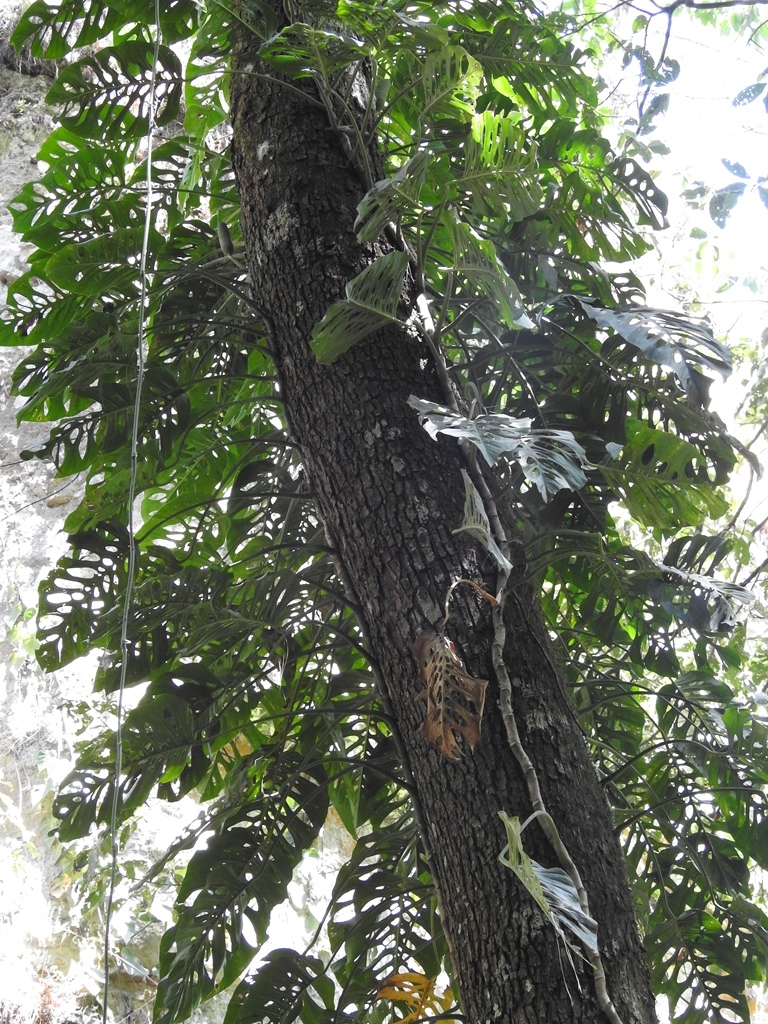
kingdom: Plantae
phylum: Tracheophyta
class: Liliopsida
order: Alismatales
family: Araceae
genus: Monstera
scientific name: Monstera siltepecana
